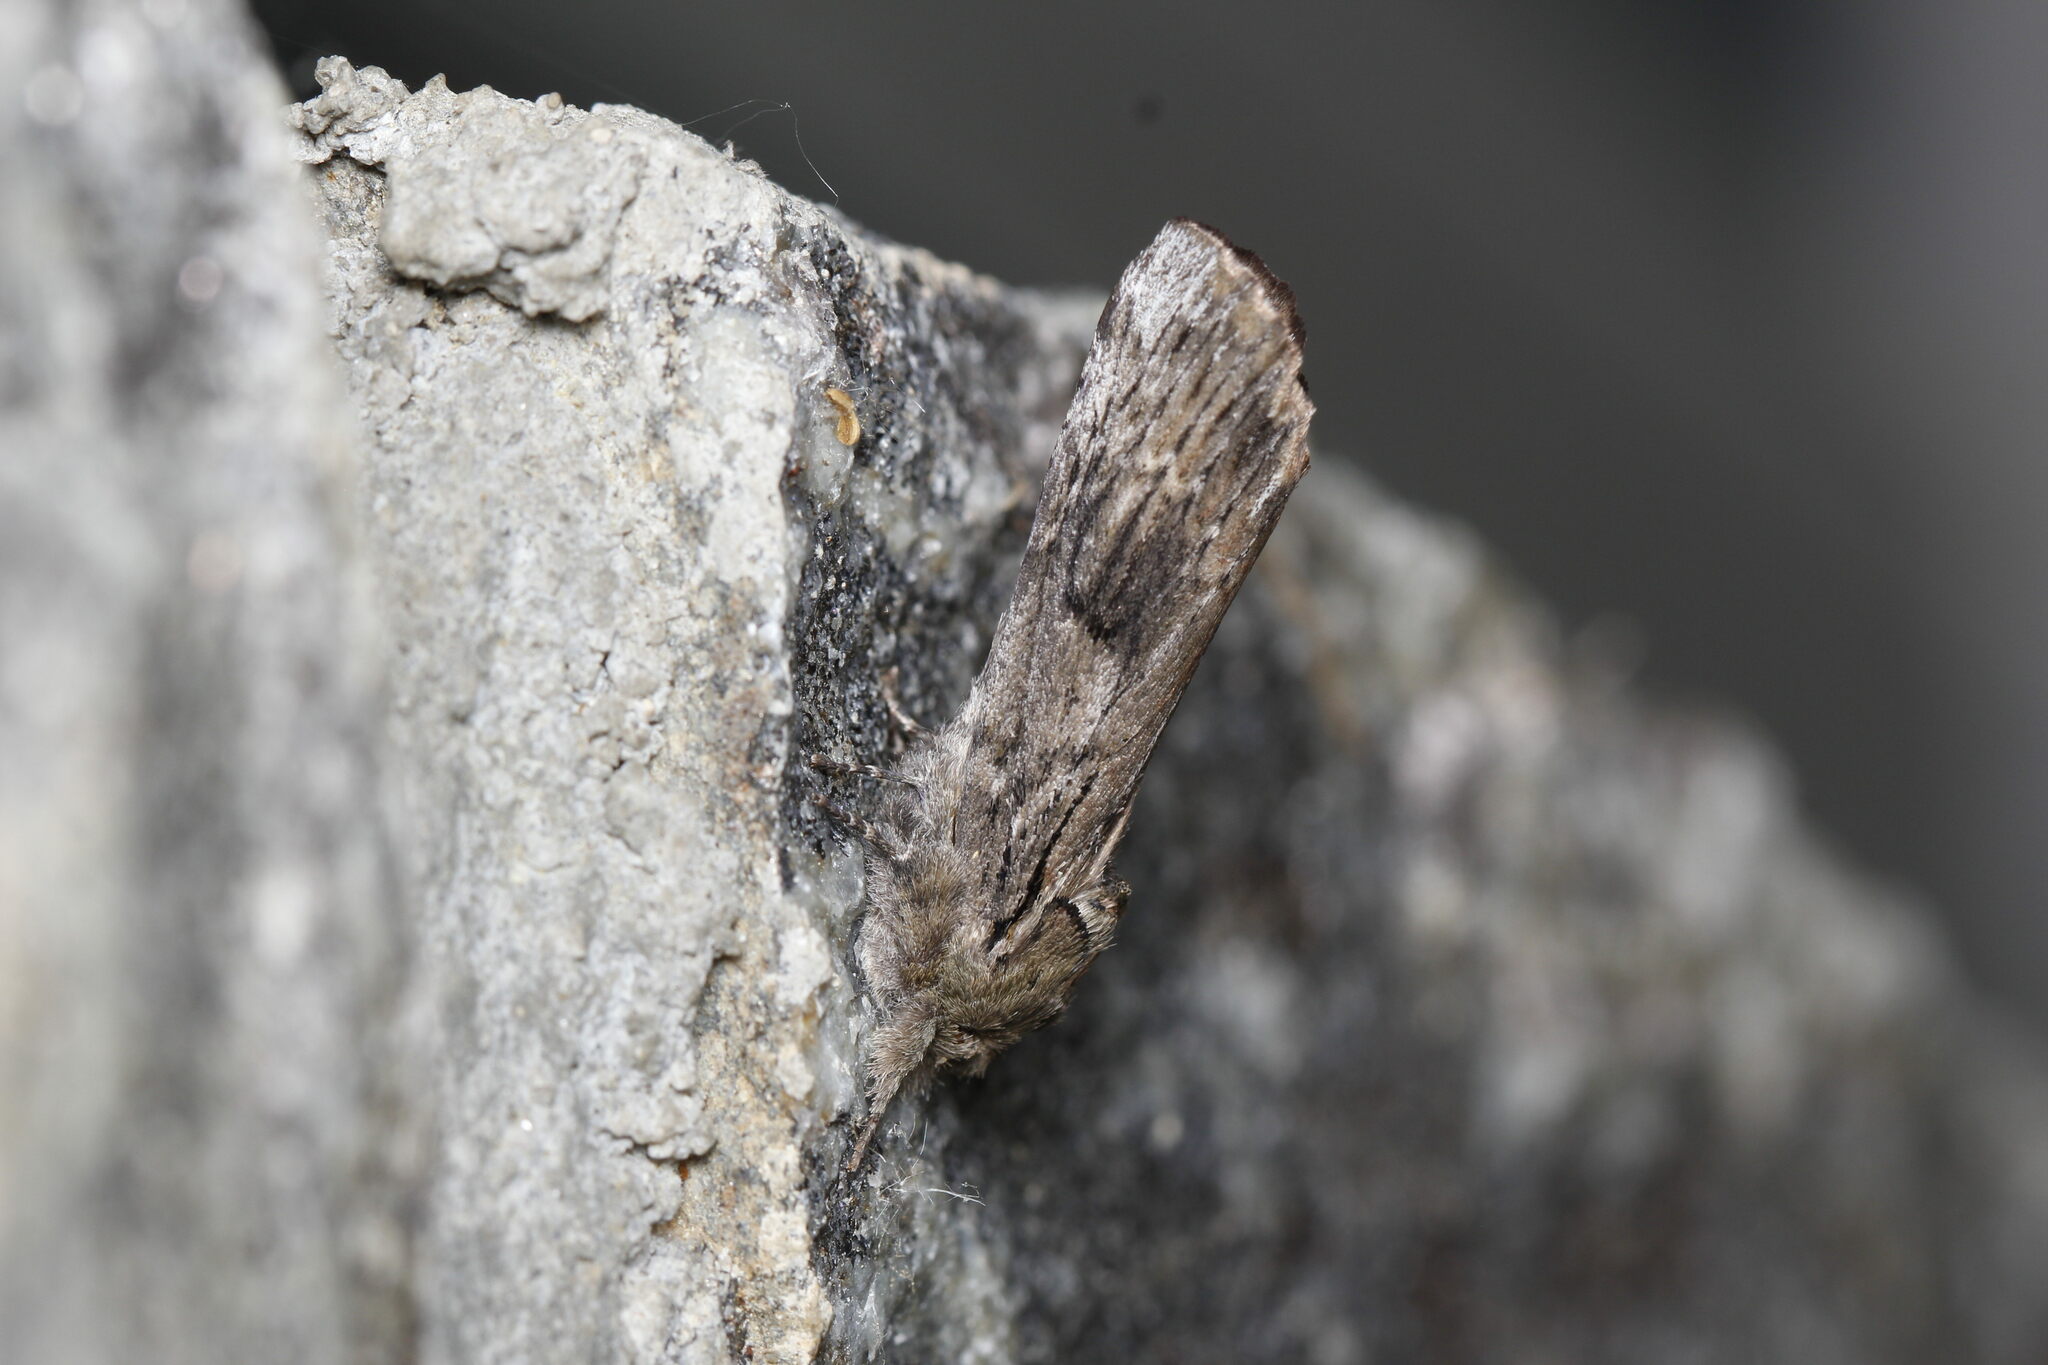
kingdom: Animalia
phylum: Arthropoda
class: Insecta
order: Lepidoptera
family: Notodontidae
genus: Schizura
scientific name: Schizura
